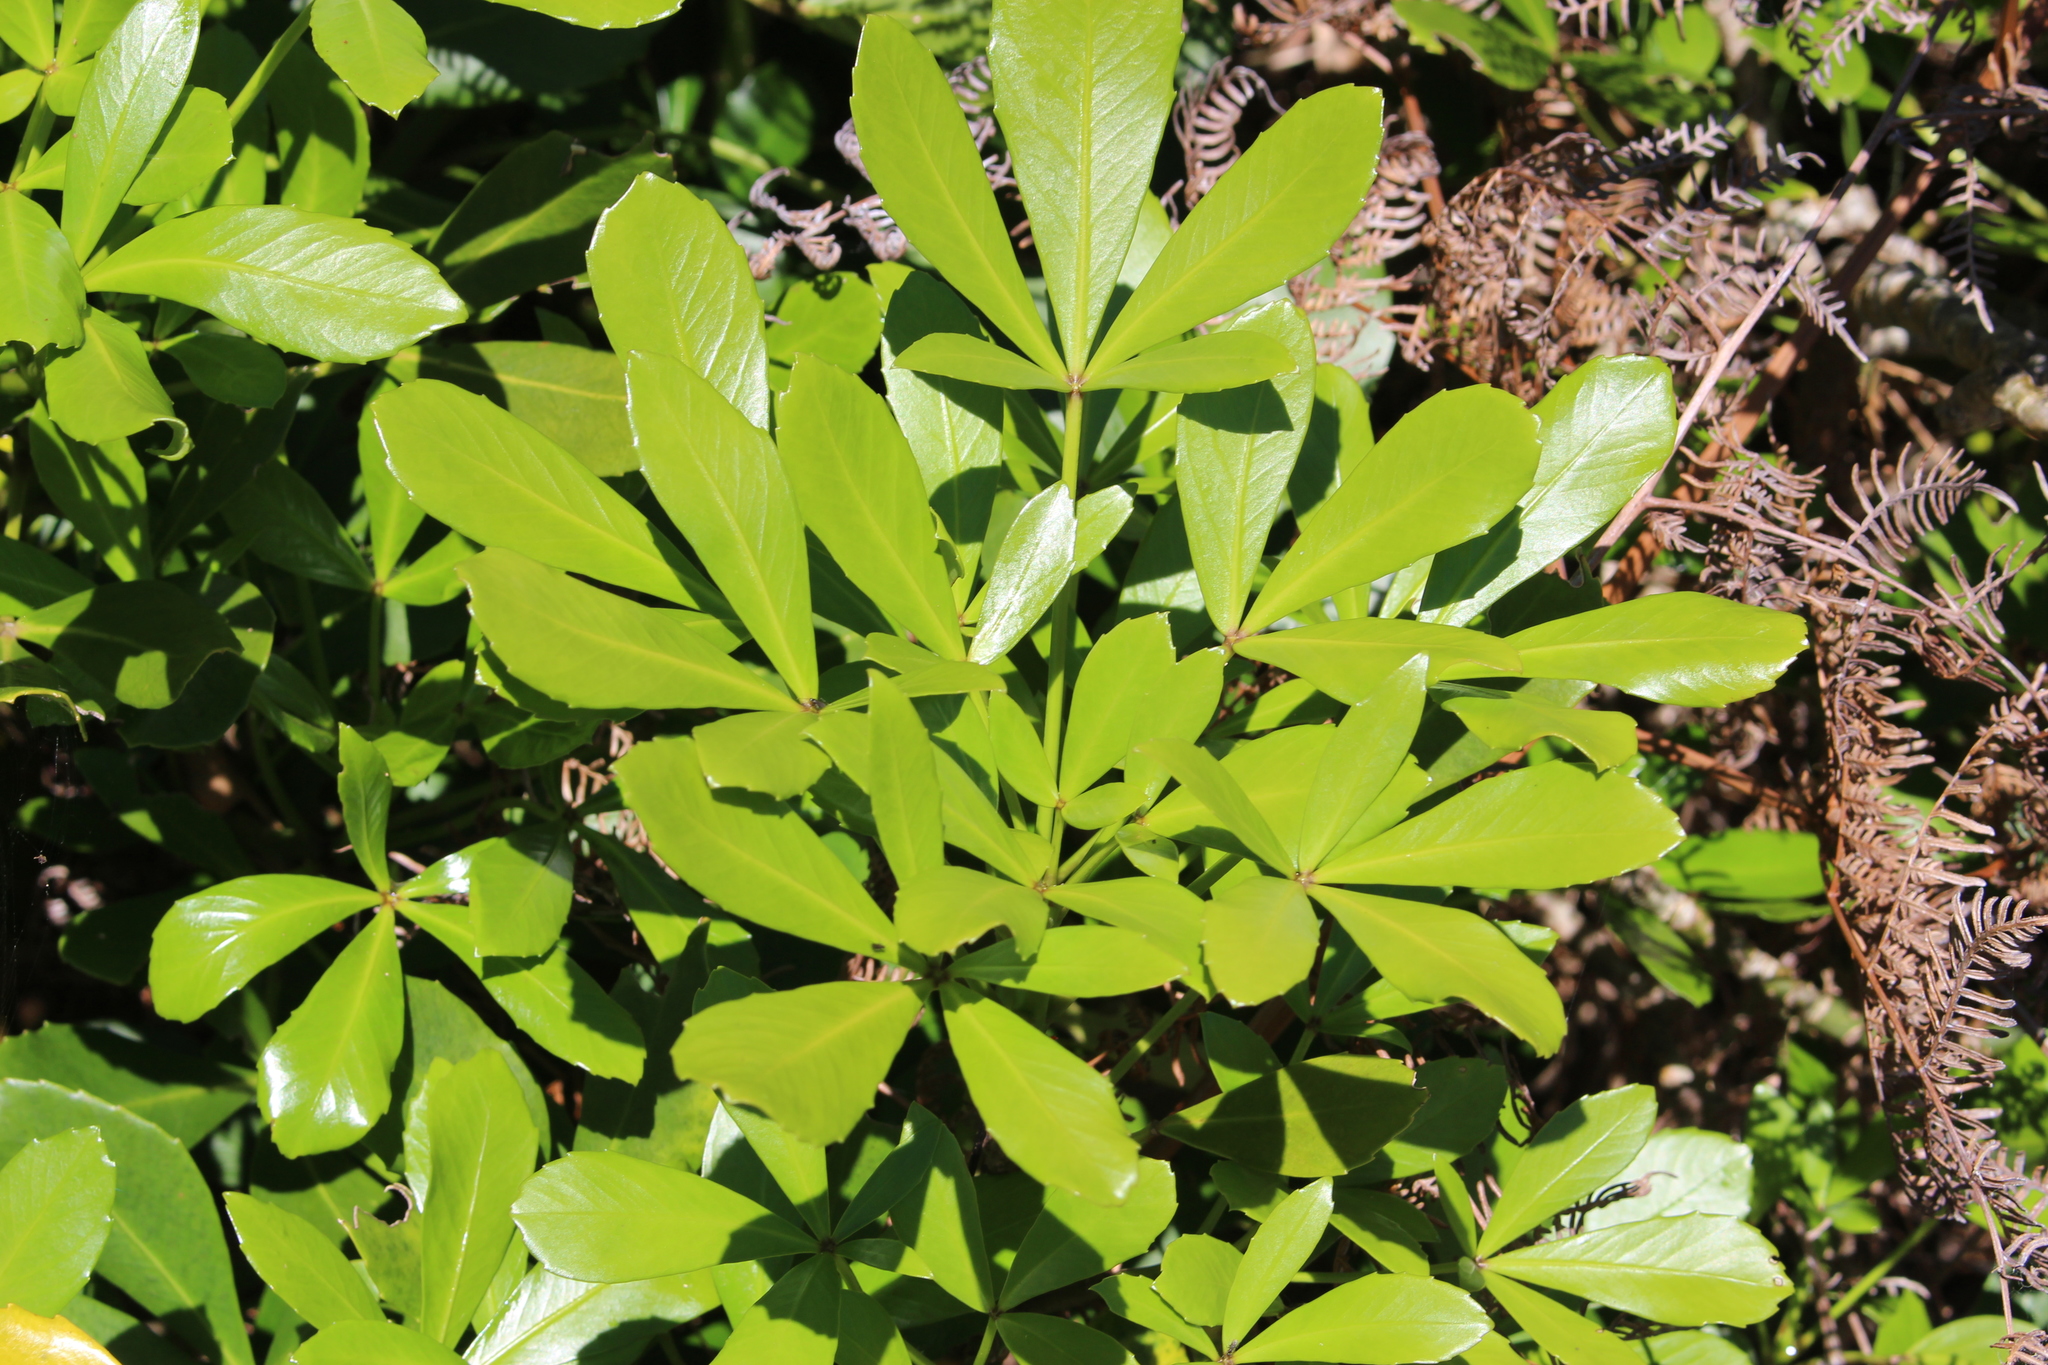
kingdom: Plantae
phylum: Tracheophyta
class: Magnoliopsida
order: Apiales
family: Araliaceae
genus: Pseudopanax
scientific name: Pseudopanax lessonii
